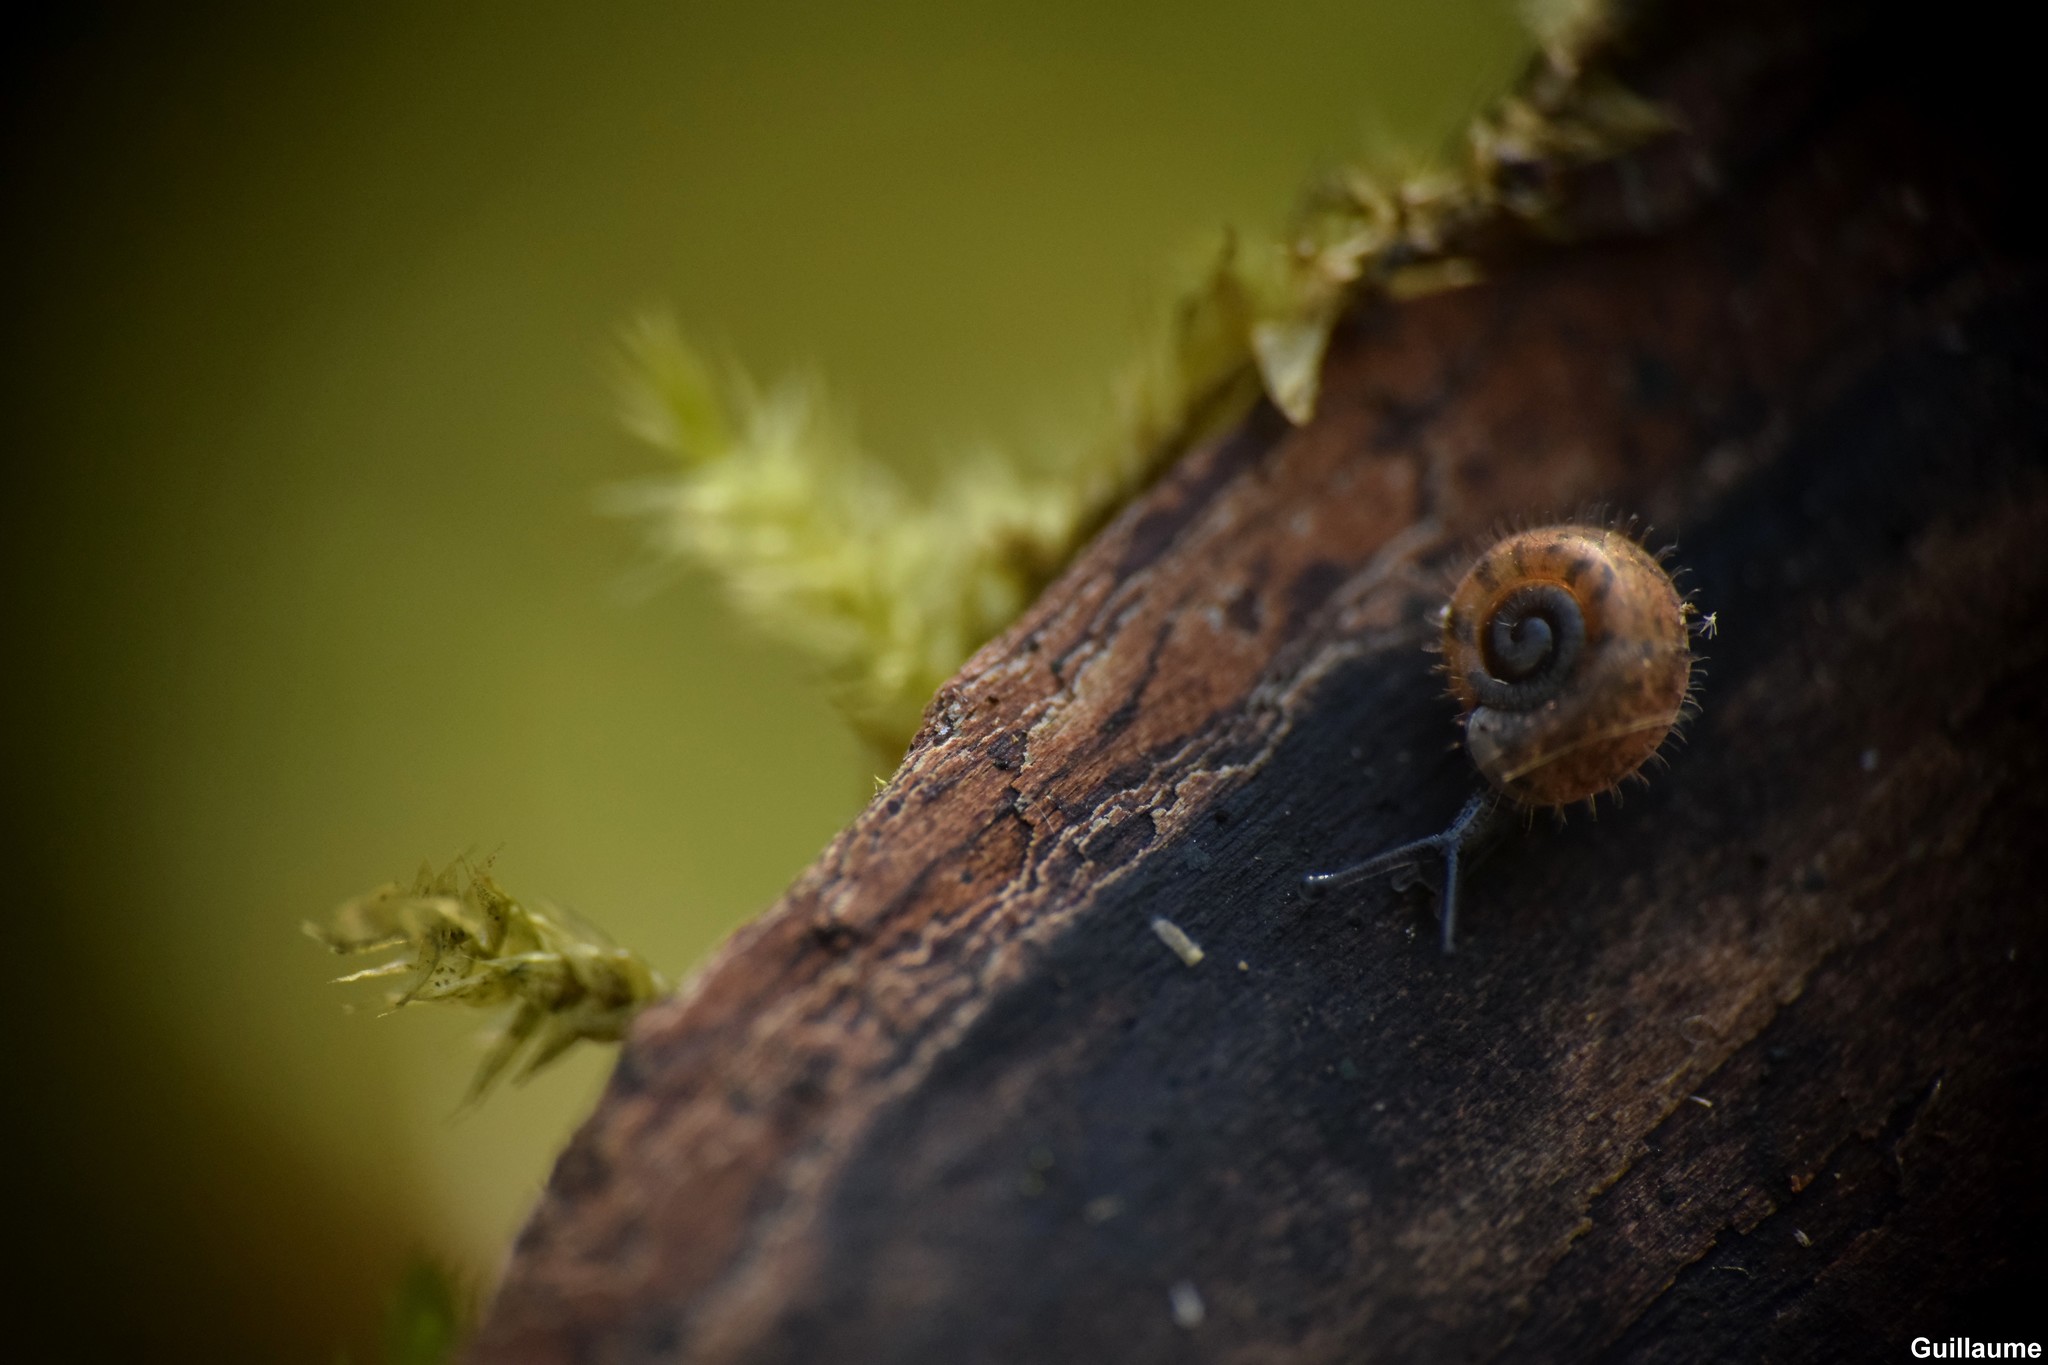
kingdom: Animalia
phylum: Mollusca
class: Gastropoda
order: Stylommatophora
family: Helicodontidae
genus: Helicodonta
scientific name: Helicodonta obvoluta
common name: Cheese snail
